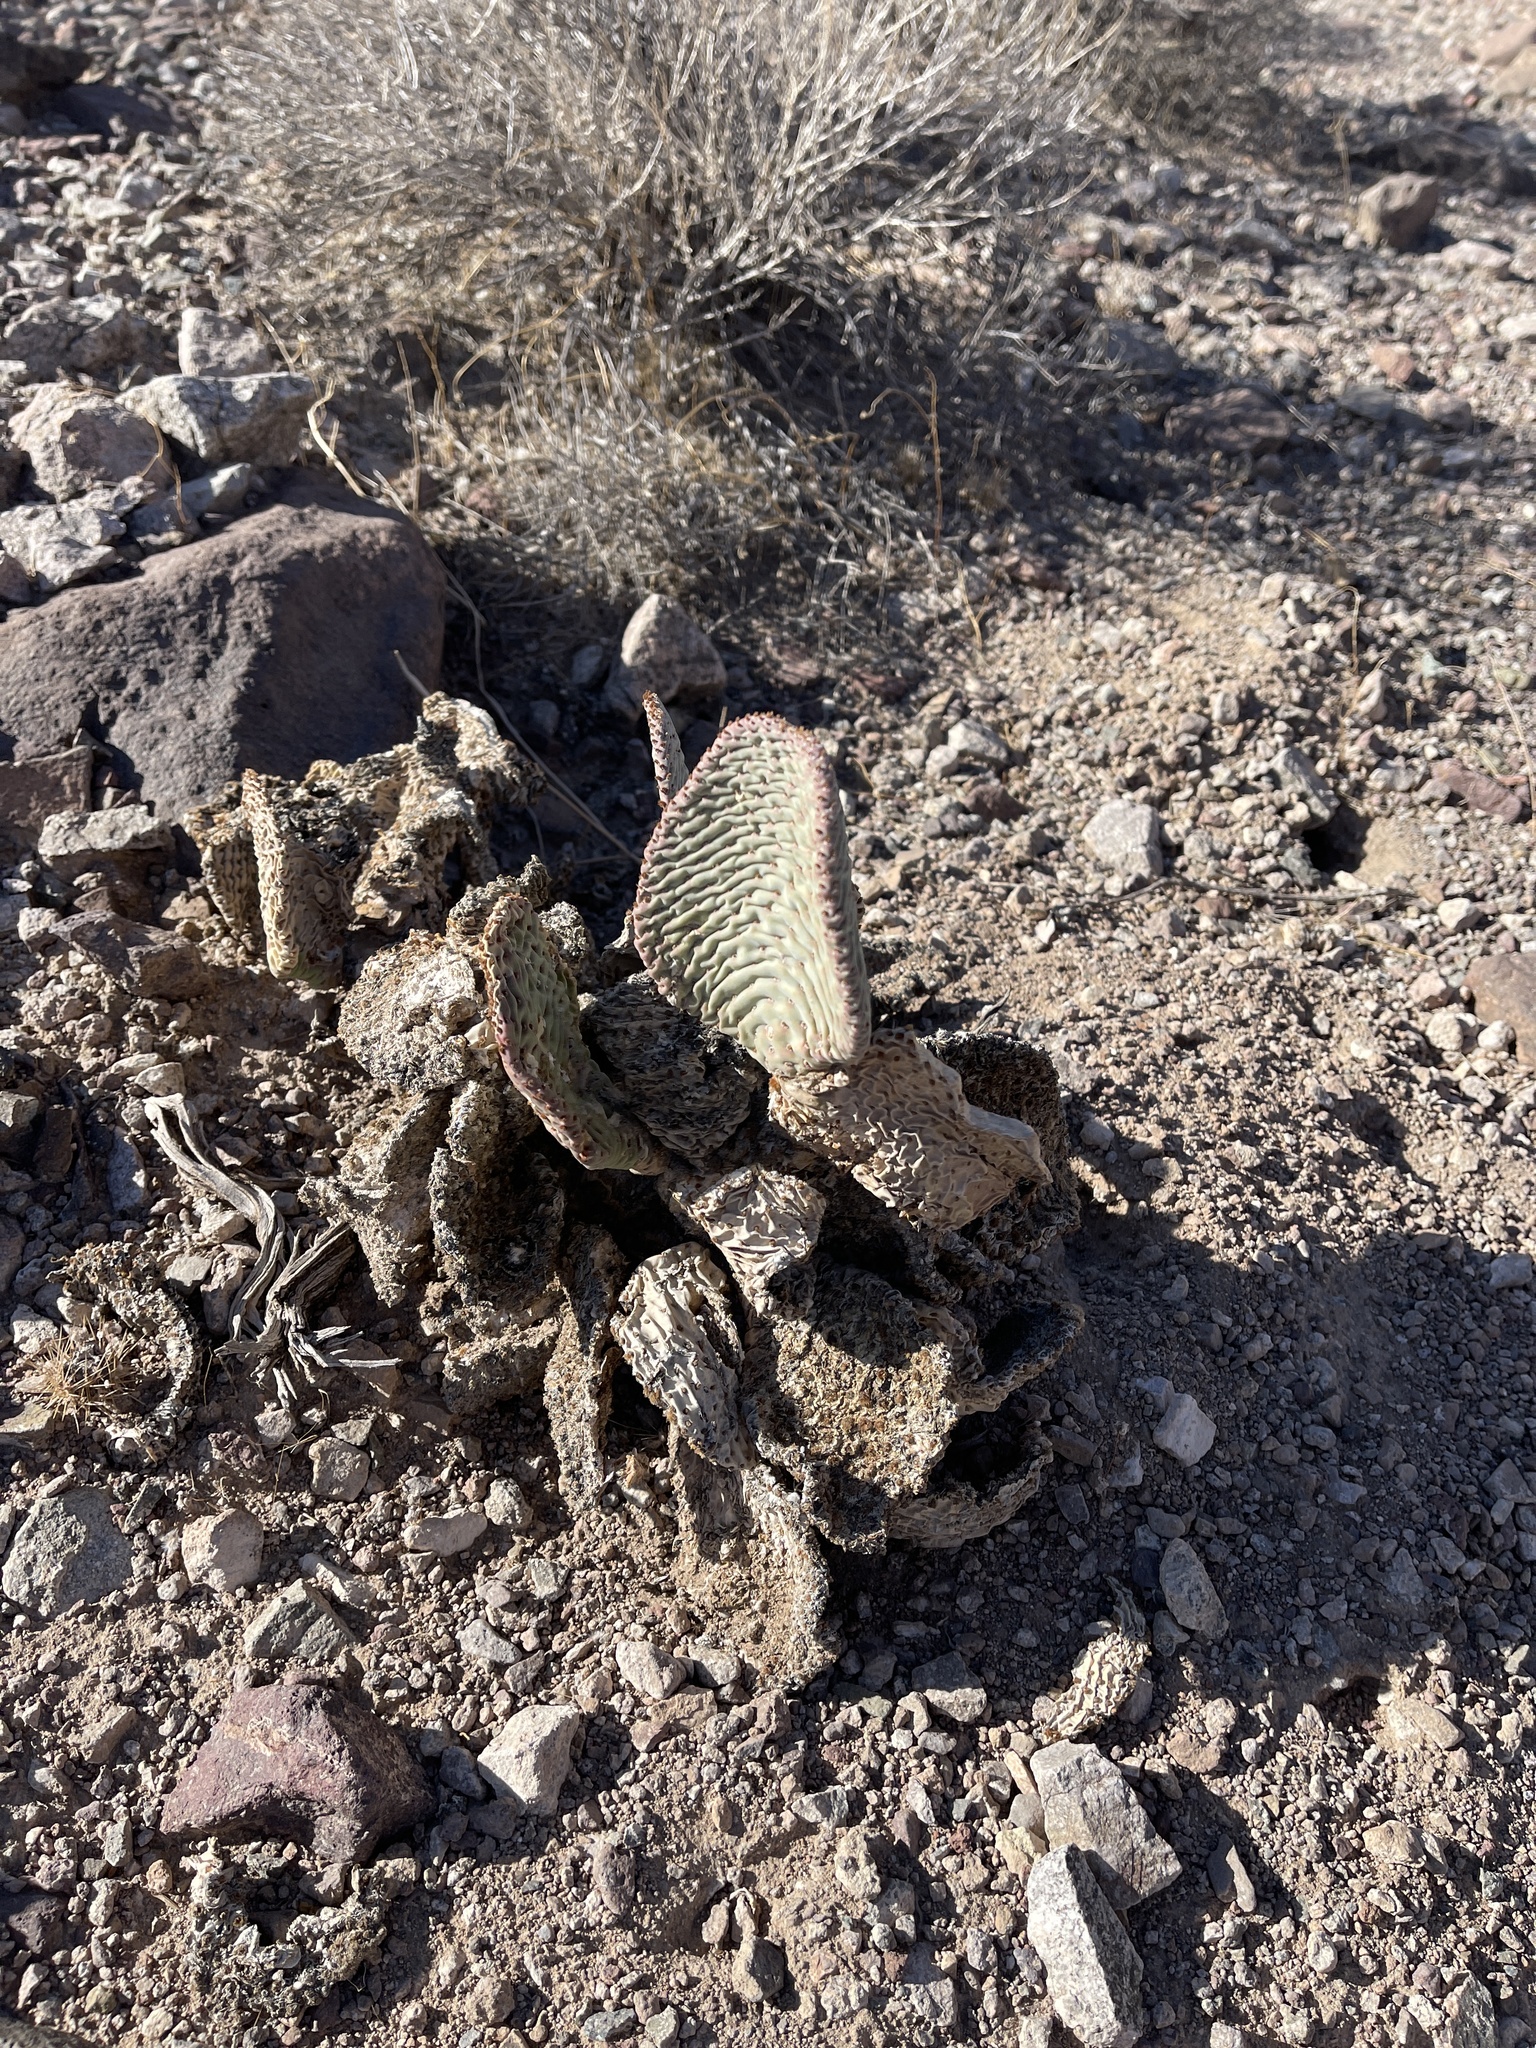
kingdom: Plantae
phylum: Tracheophyta
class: Magnoliopsida
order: Caryophyllales
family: Cactaceae
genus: Opuntia
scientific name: Opuntia basilaris
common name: Beavertail prickly-pear
